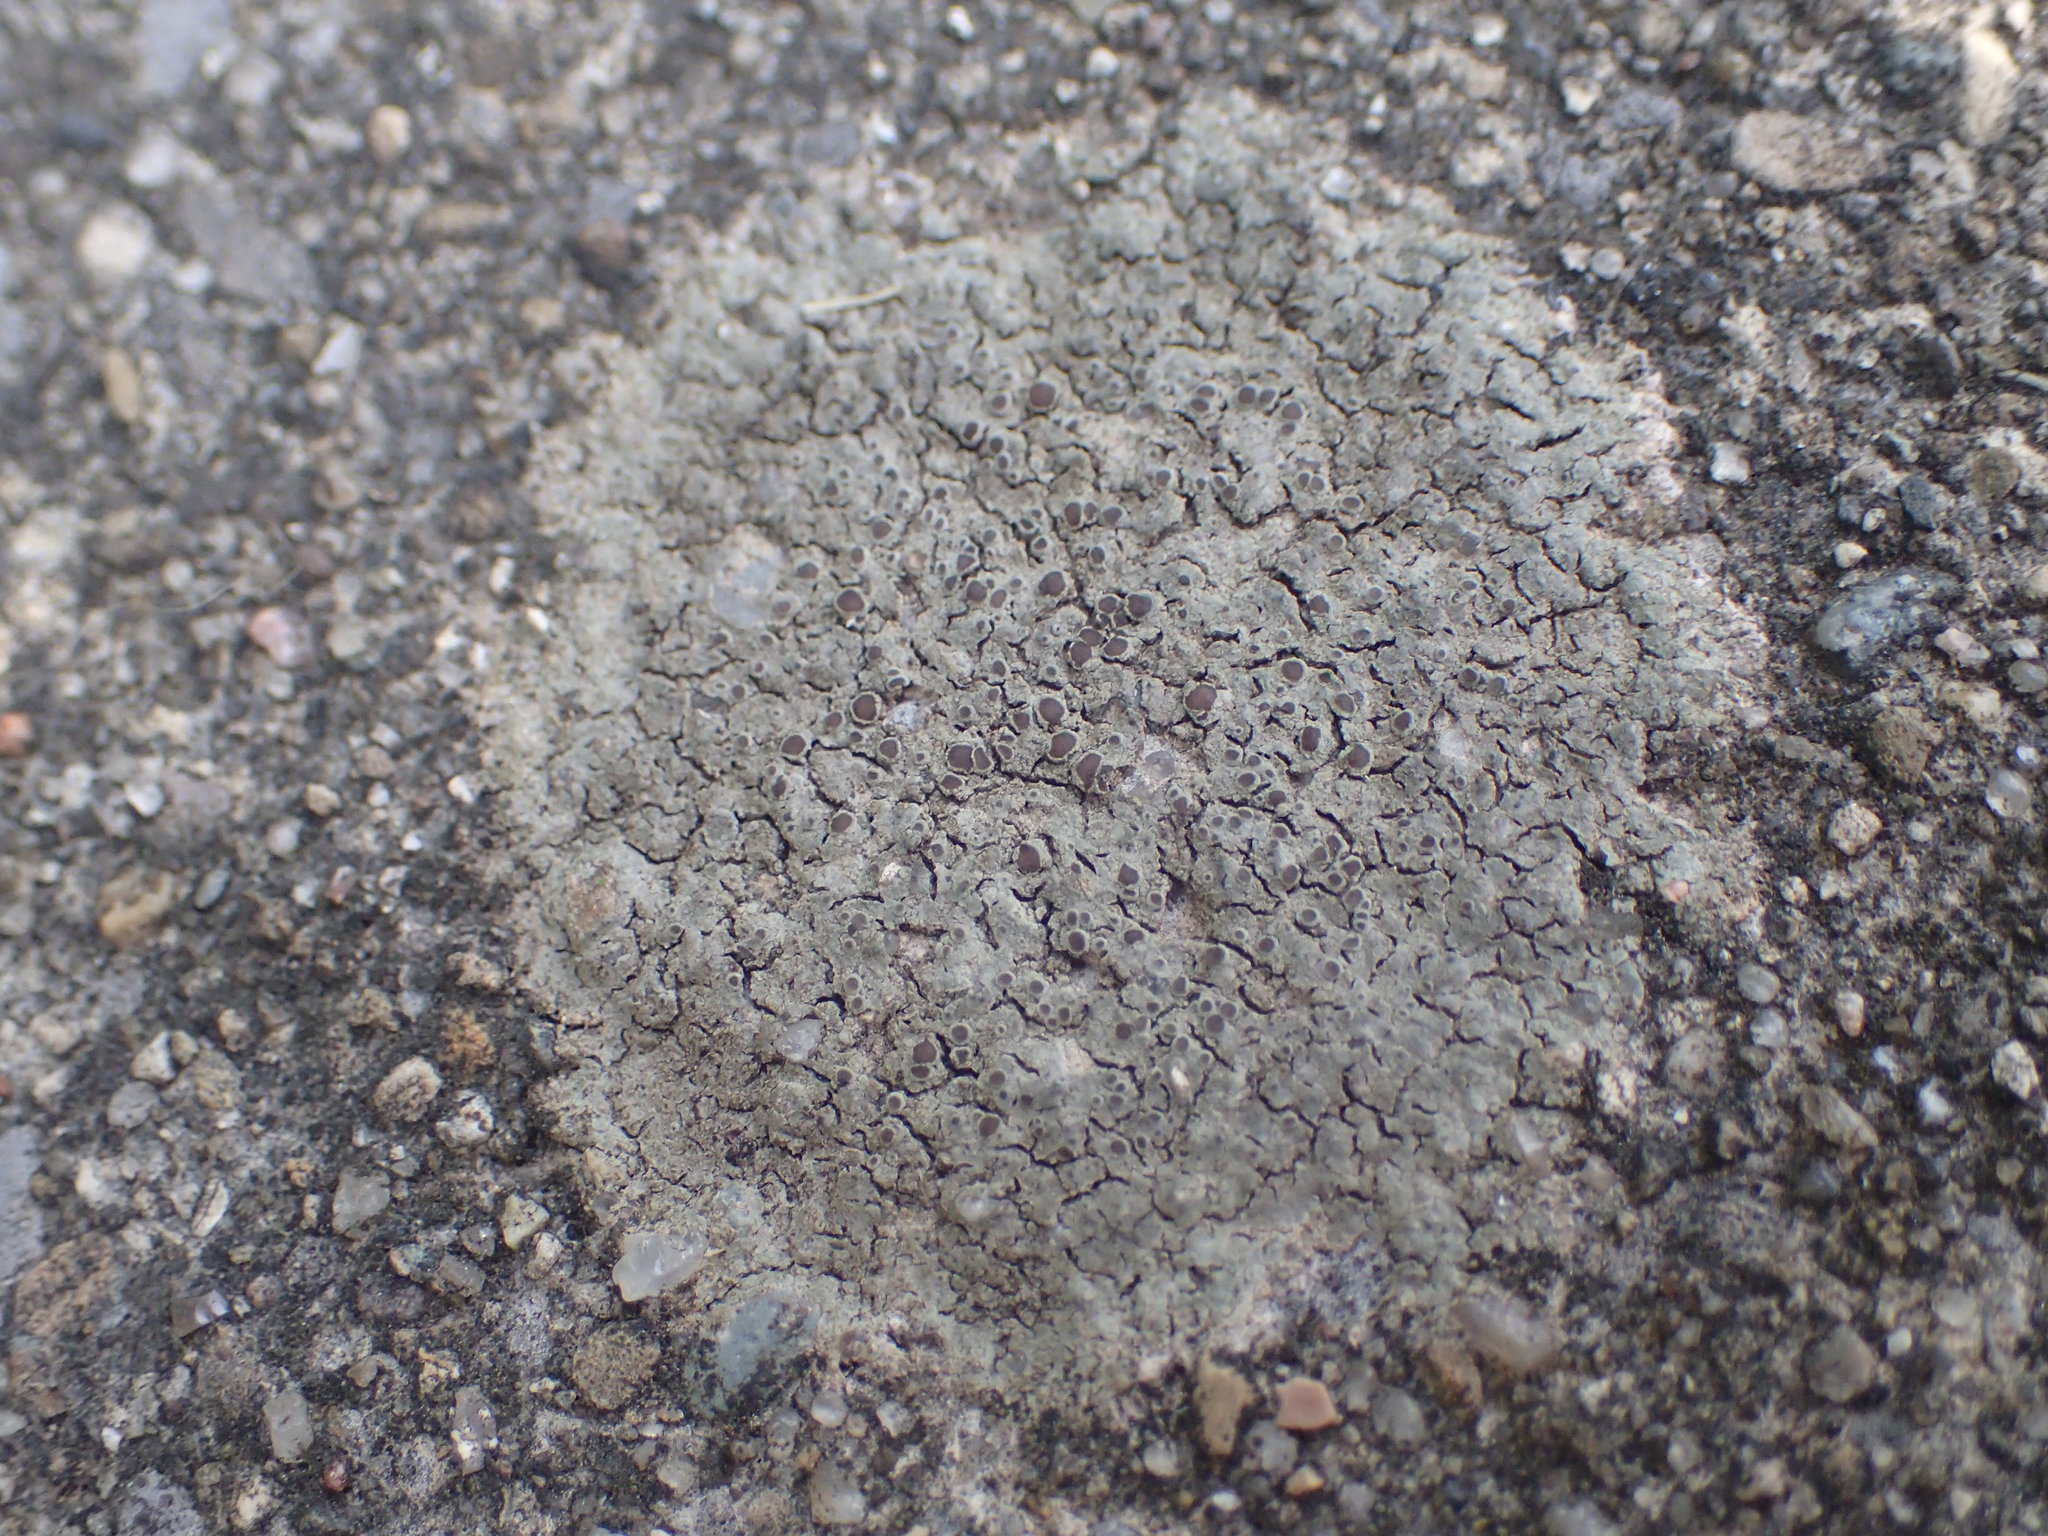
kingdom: Fungi
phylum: Ascomycota
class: Lecanoromycetes
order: Teloschistales
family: Teloschistaceae
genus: Pyrenodesmia
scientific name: Pyrenodesmia atroalba
